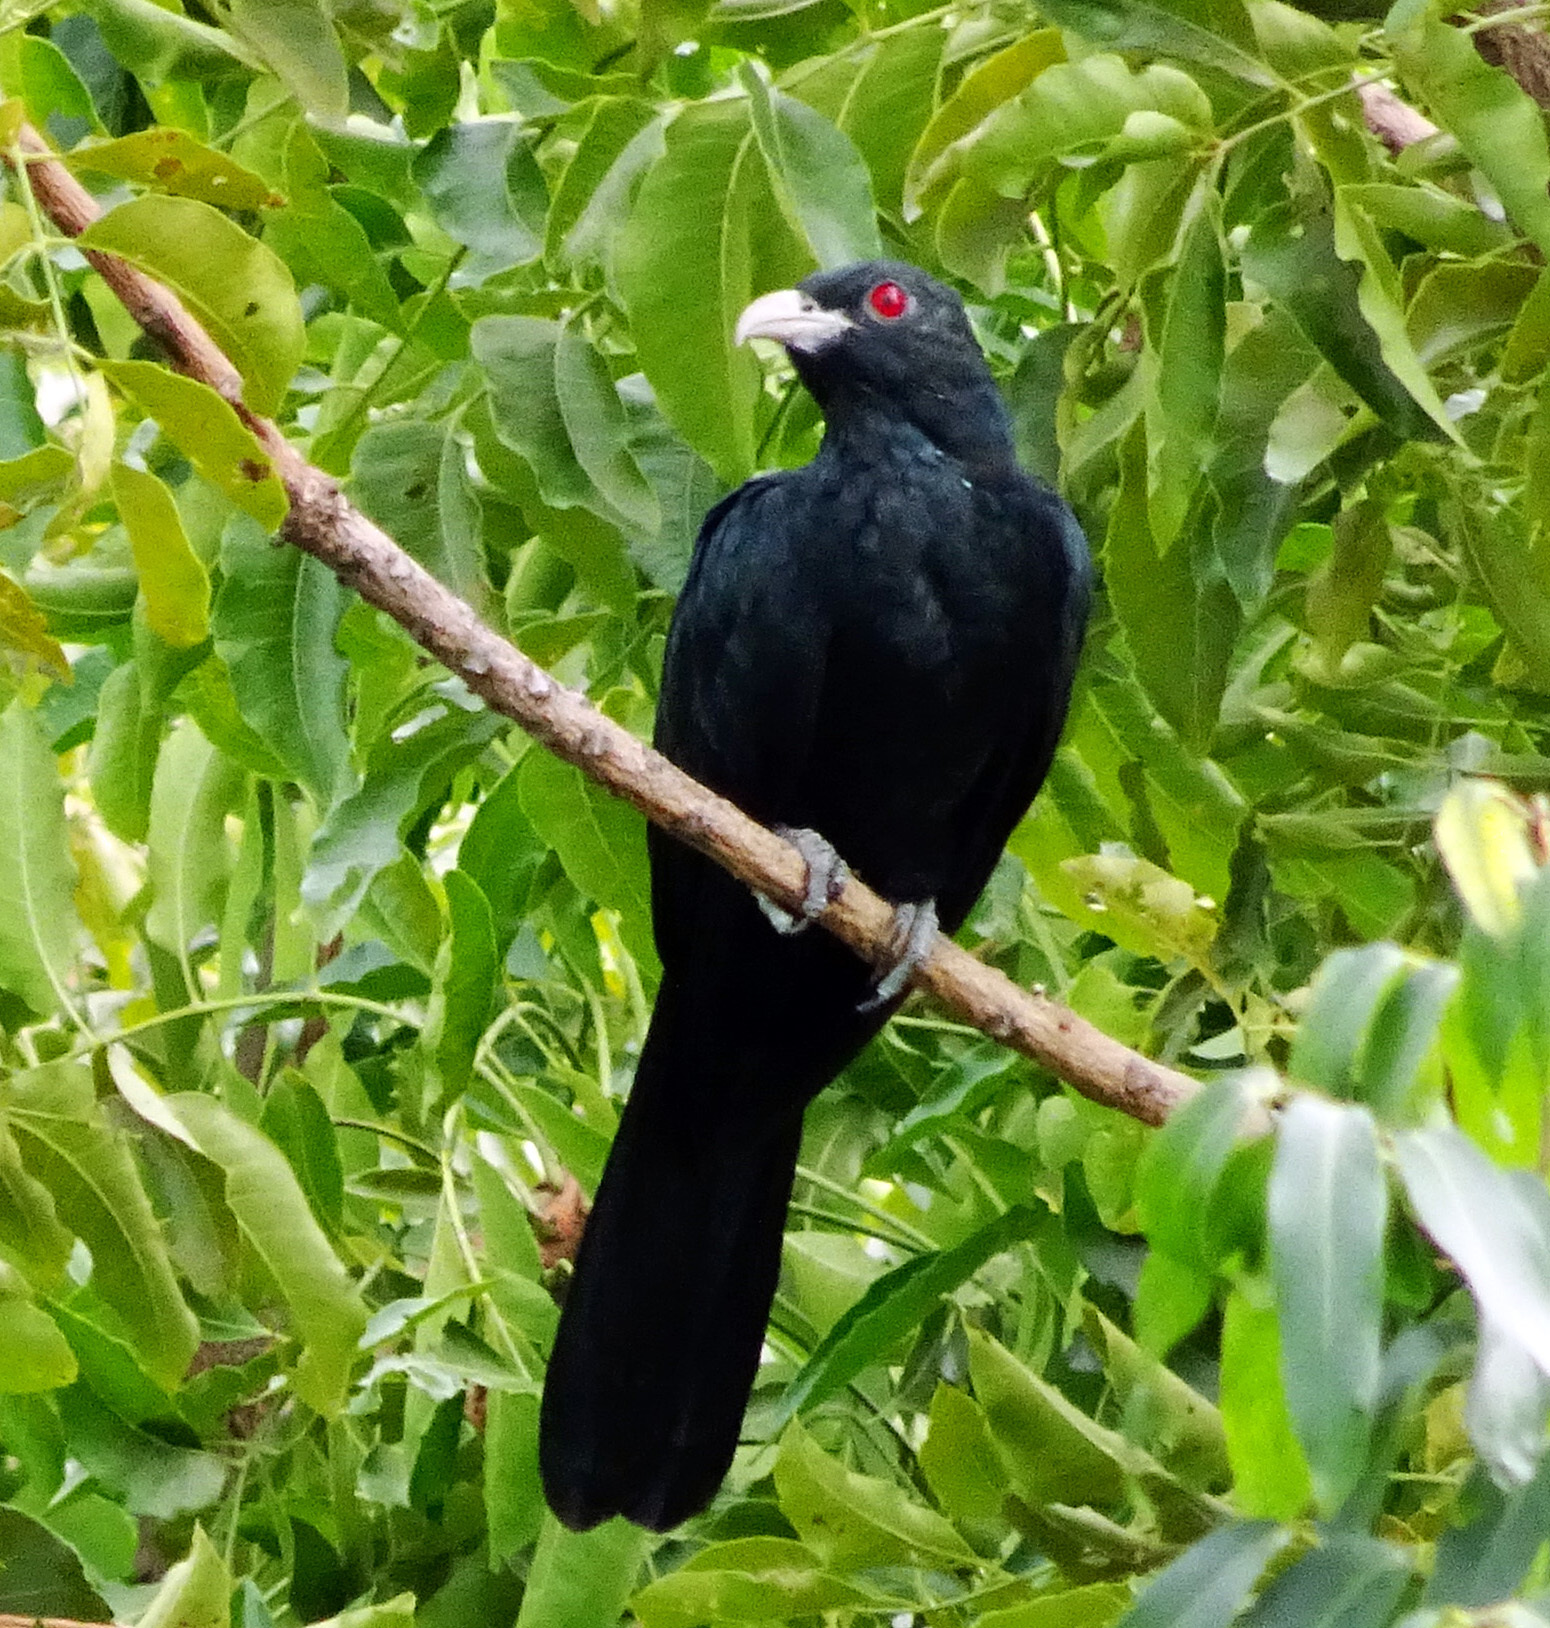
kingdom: Animalia
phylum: Chordata
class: Aves
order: Cuculiformes
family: Cuculidae
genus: Eudynamys
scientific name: Eudynamys scolopaceus
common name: Asian koel
